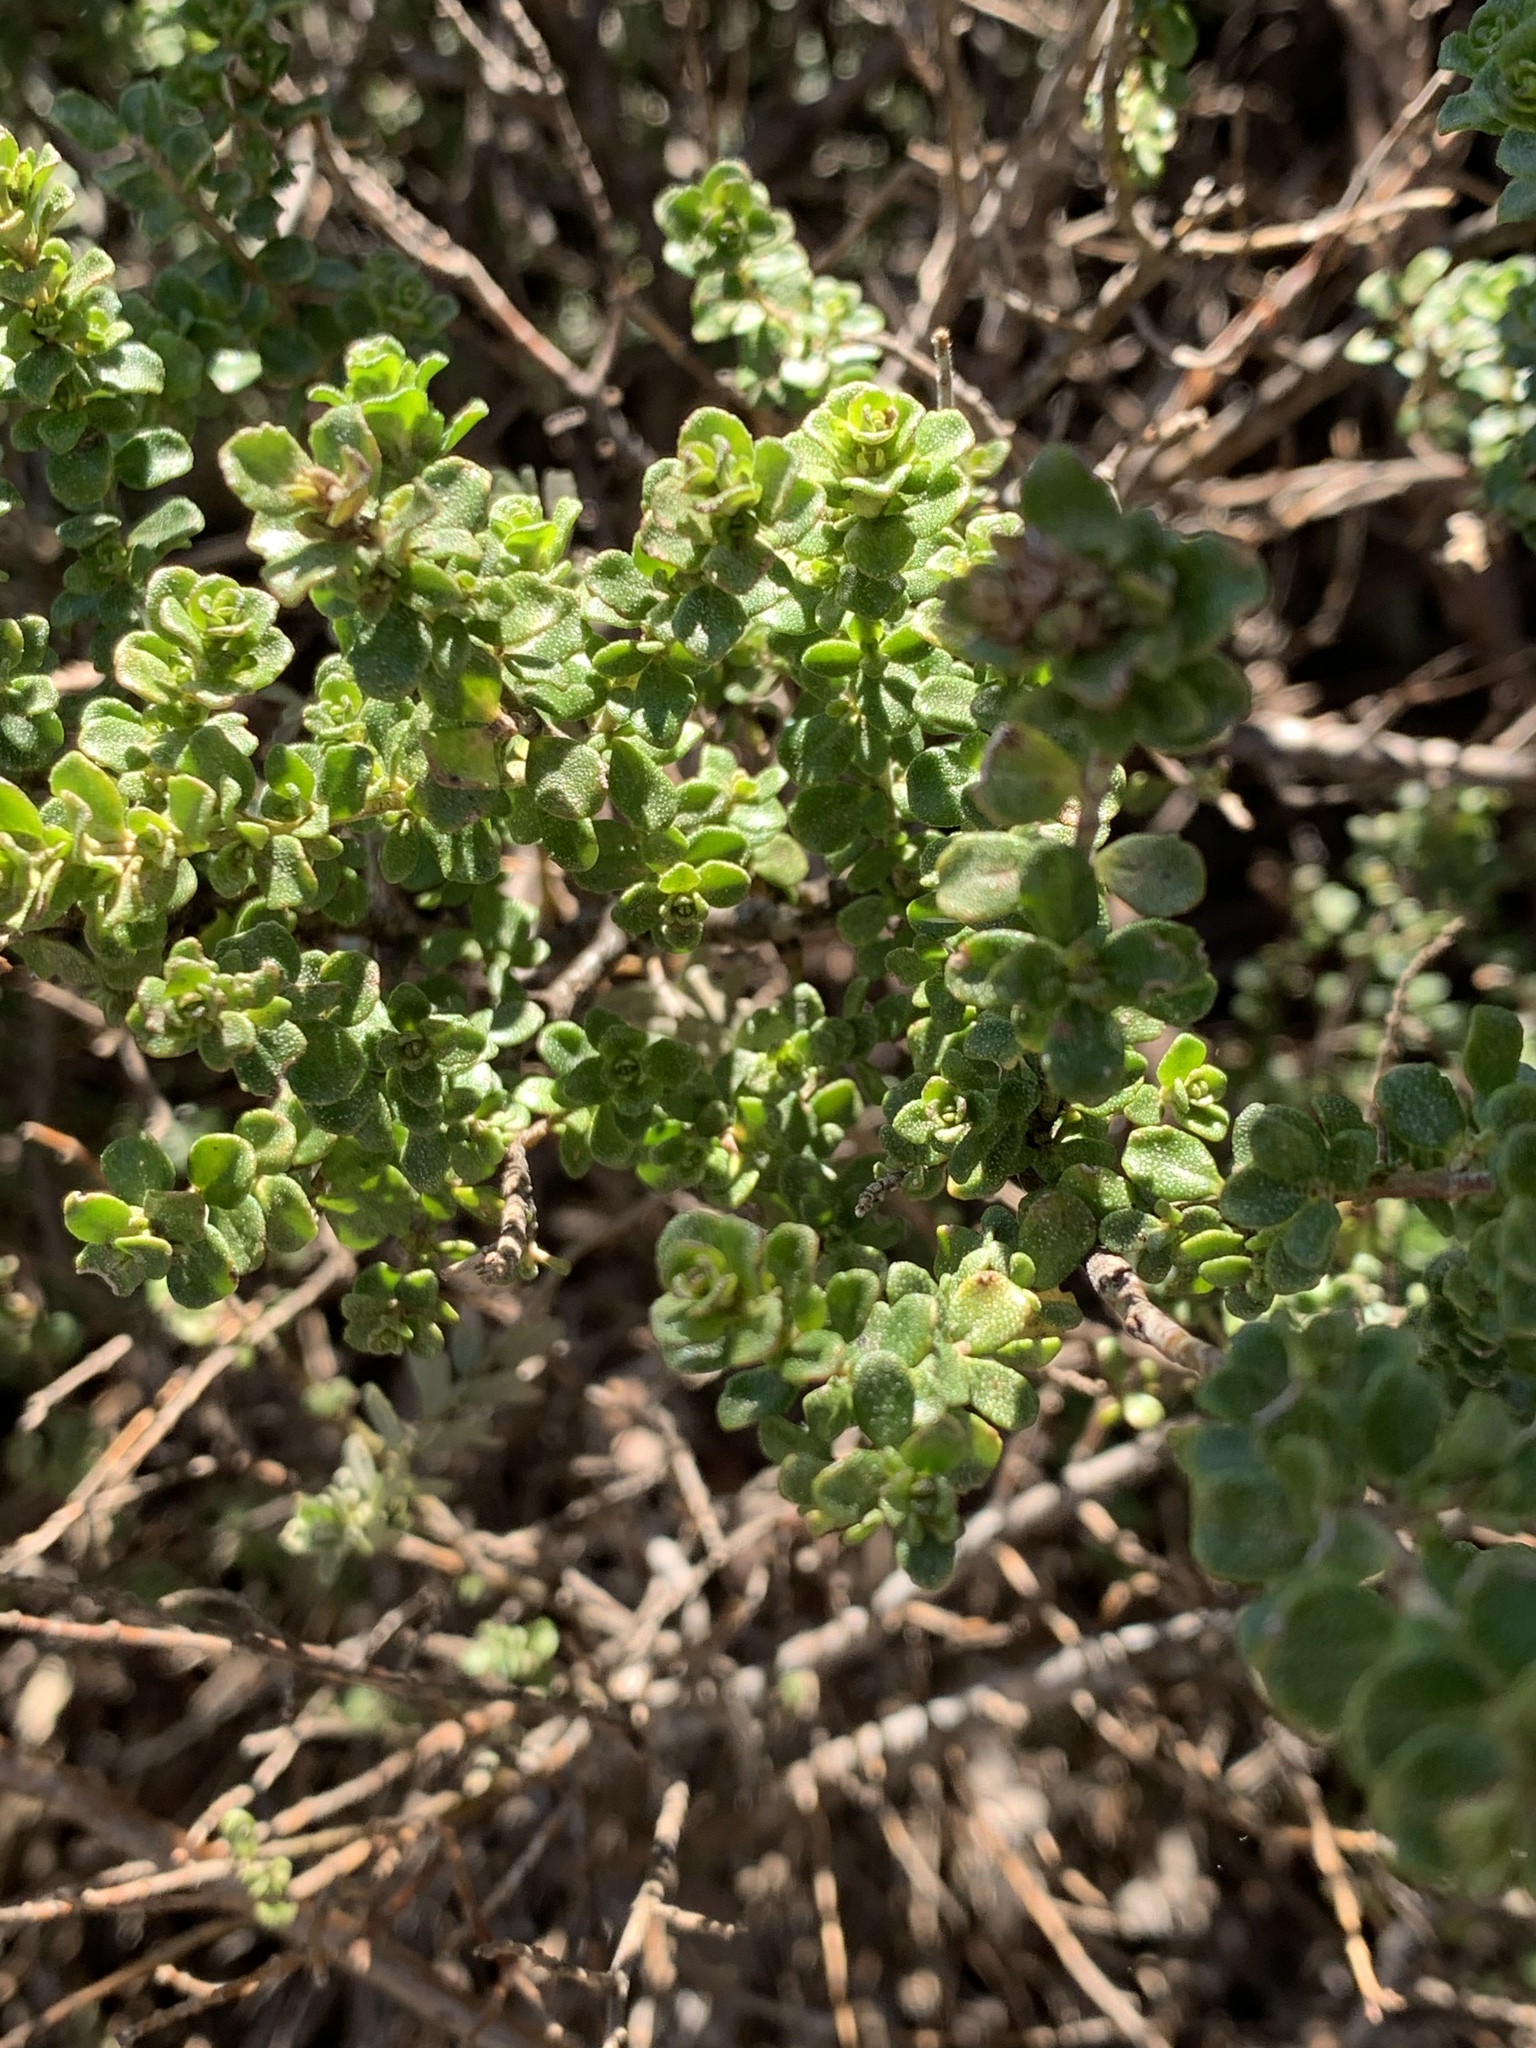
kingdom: Plantae
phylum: Tracheophyta
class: Magnoliopsida
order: Lamiales
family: Lamiaceae
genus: Prostanthera
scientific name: Prostanthera cuneata
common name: Alpine mintbush
